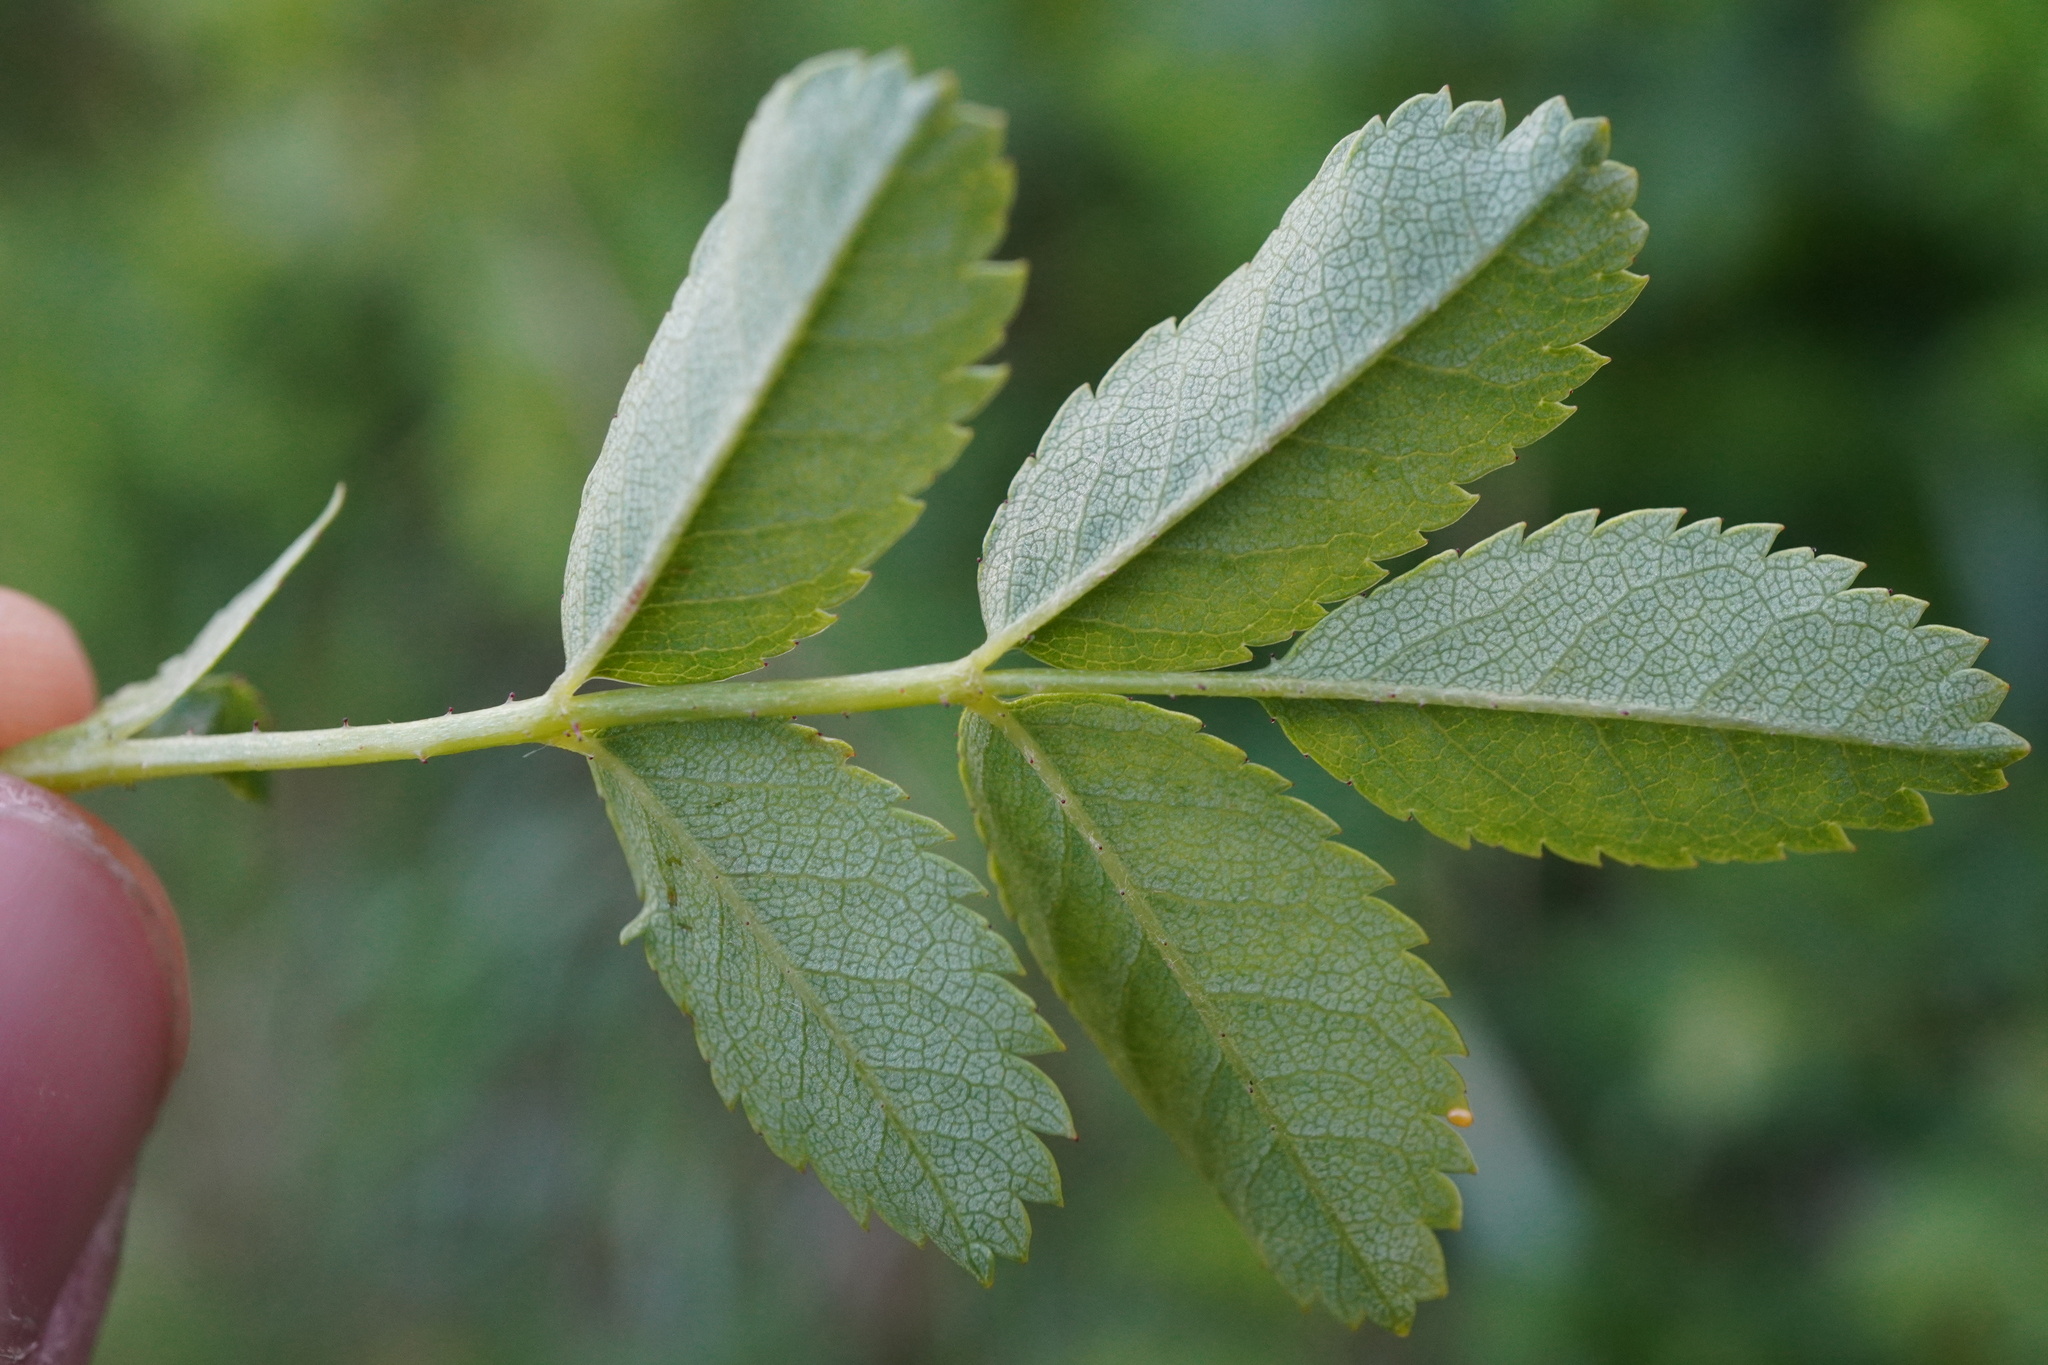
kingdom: Plantae
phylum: Tracheophyta
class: Magnoliopsida
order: Rosales
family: Rosaceae
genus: Rosa
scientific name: Rosa spinosissima
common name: Burnet rose
